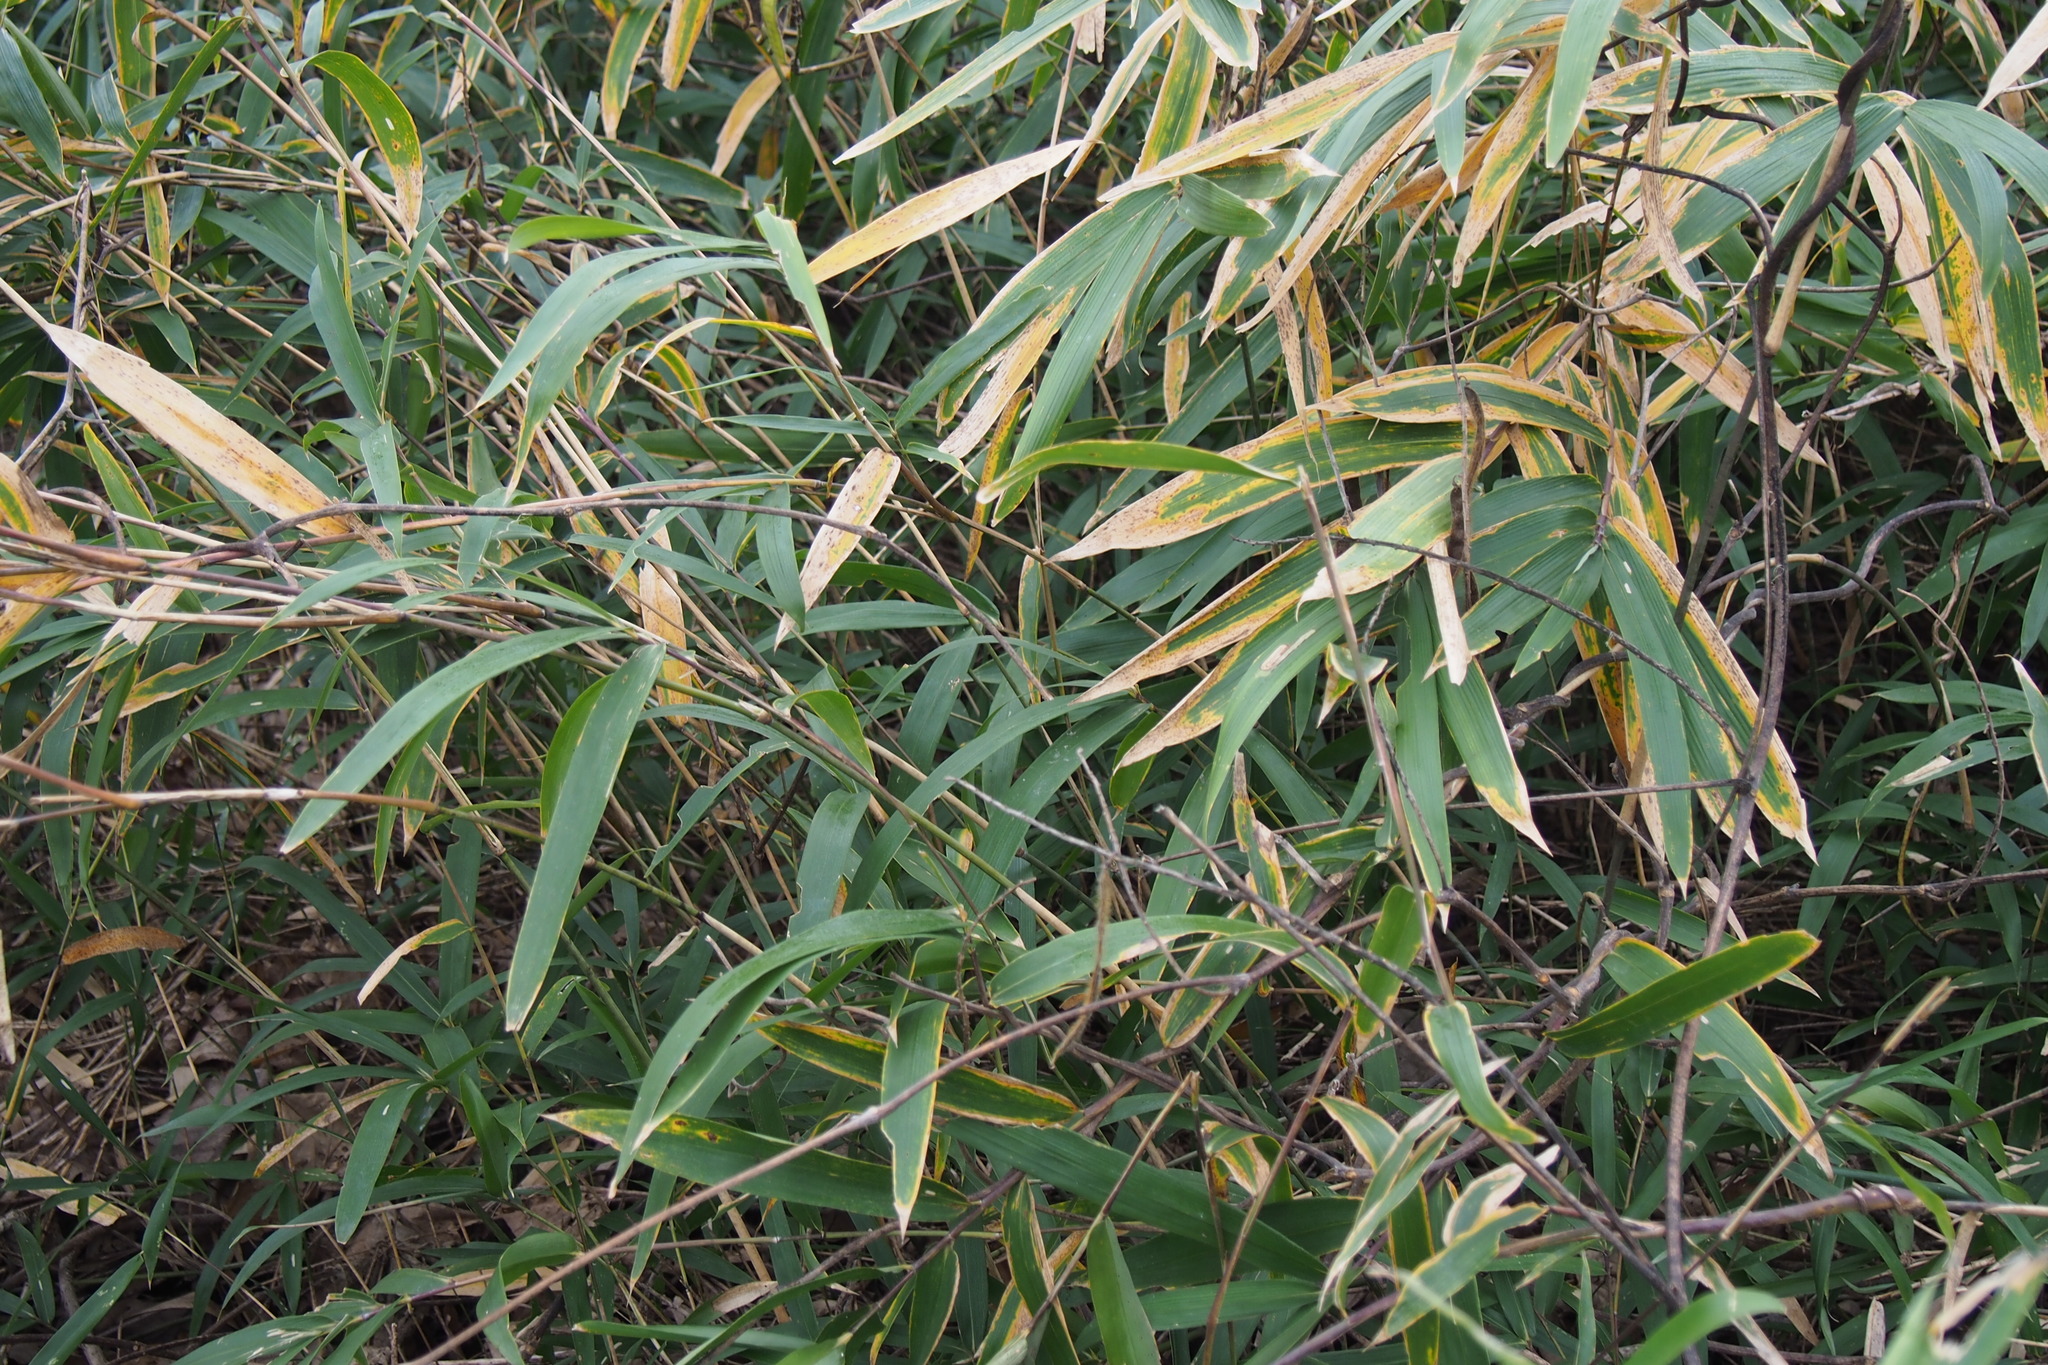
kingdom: Plantae
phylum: Tracheophyta
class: Liliopsida
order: Poales
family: Poaceae
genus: Pleioblastus
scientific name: Pleioblastus argenteostriatus
